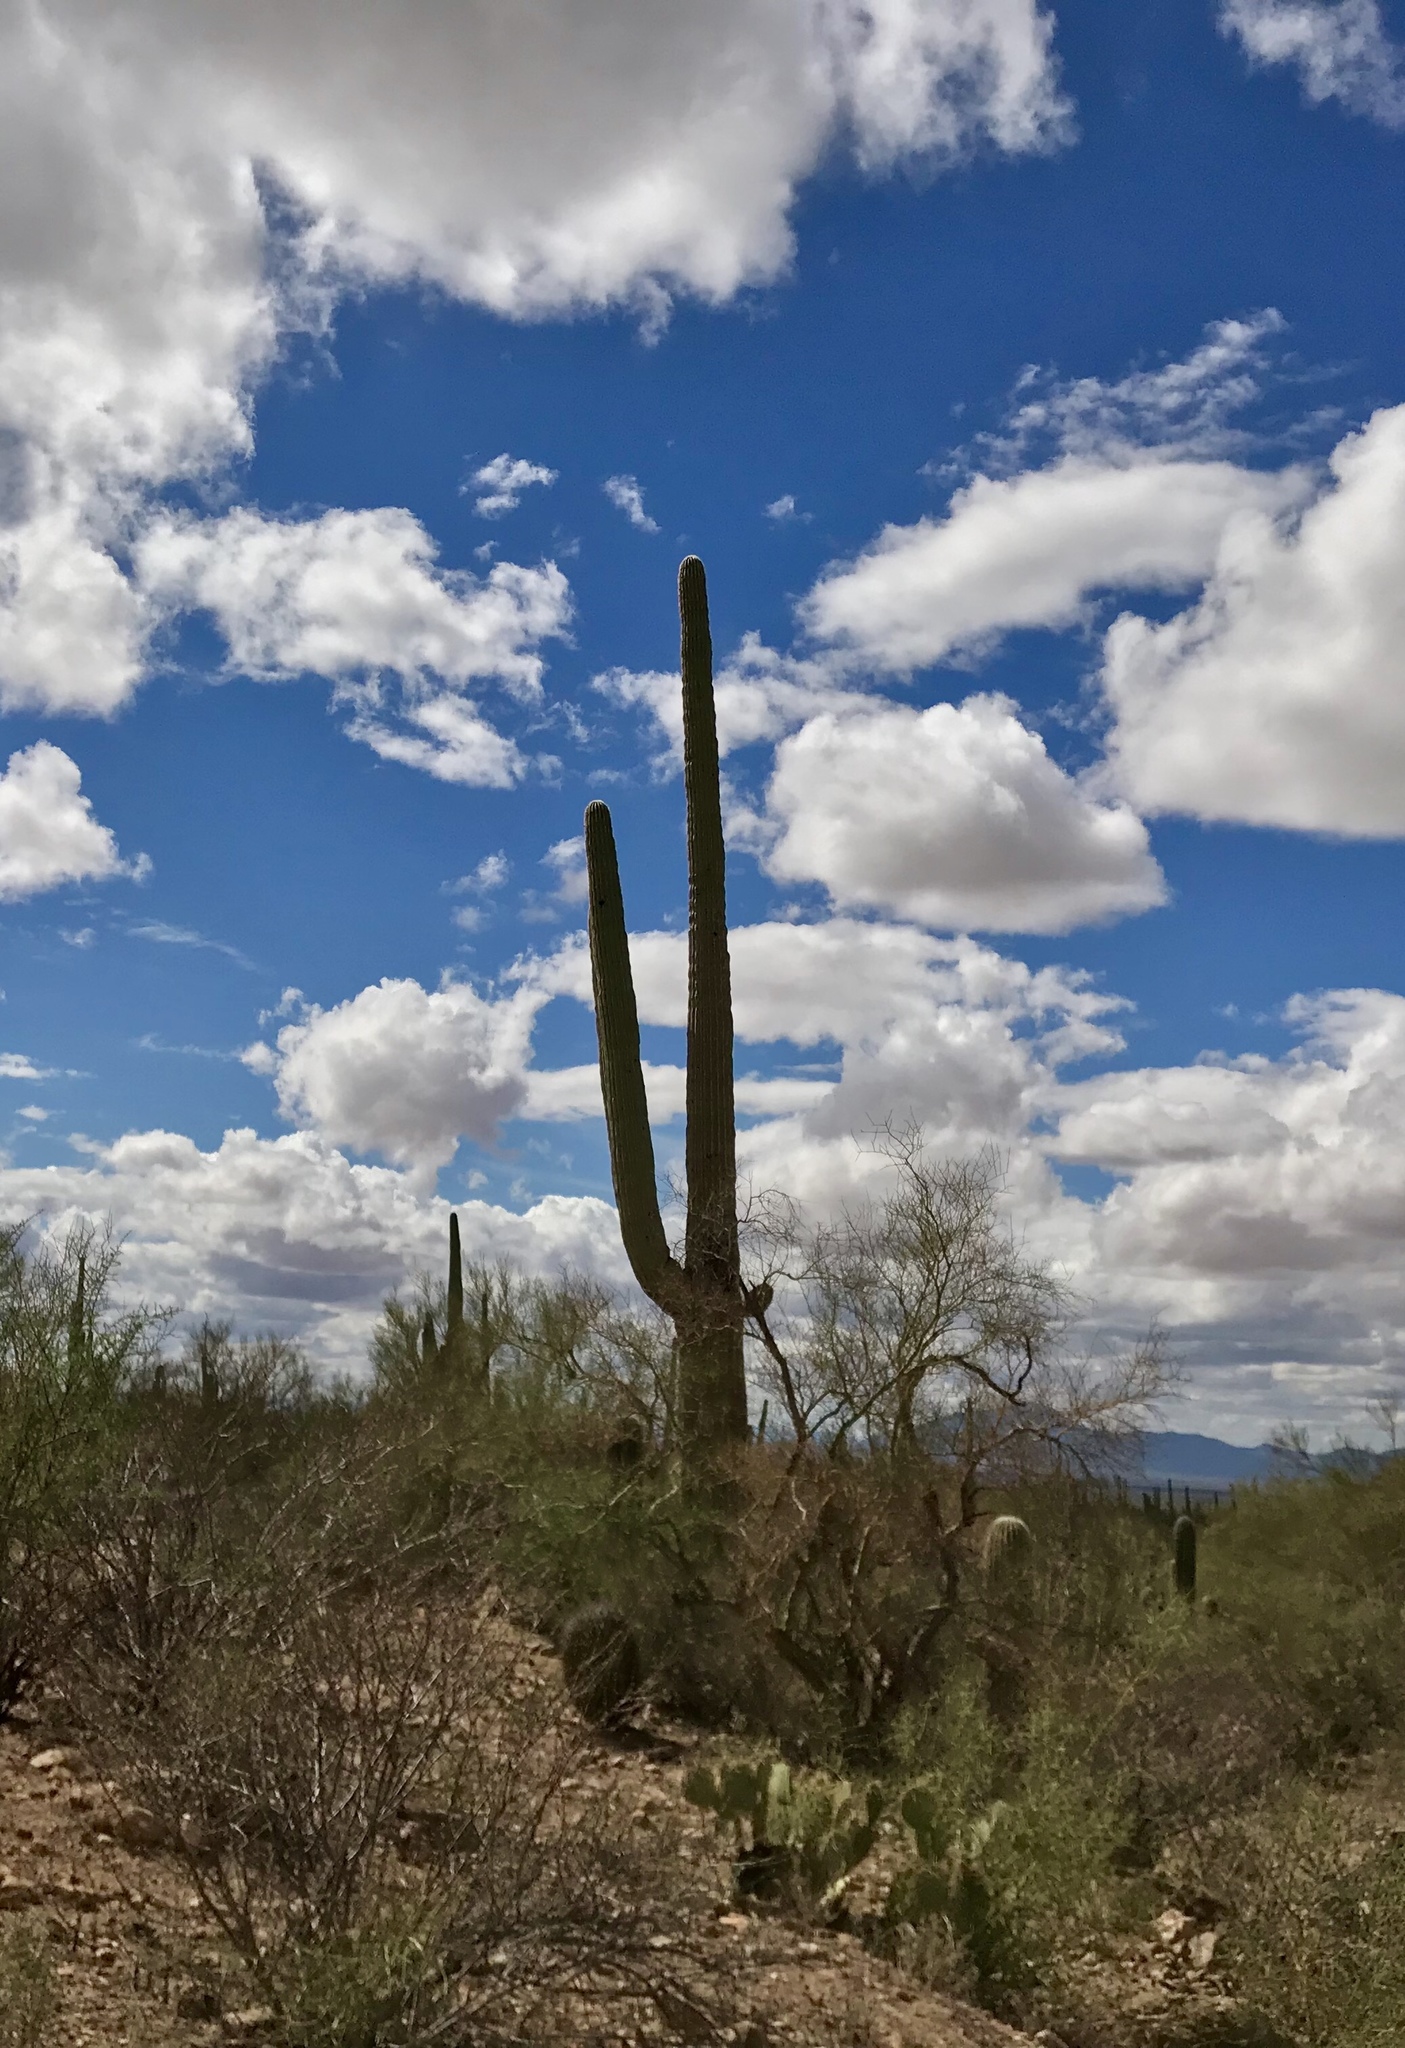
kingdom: Plantae
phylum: Tracheophyta
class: Magnoliopsida
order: Caryophyllales
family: Cactaceae
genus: Carnegiea
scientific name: Carnegiea gigantea
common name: Saguaro
